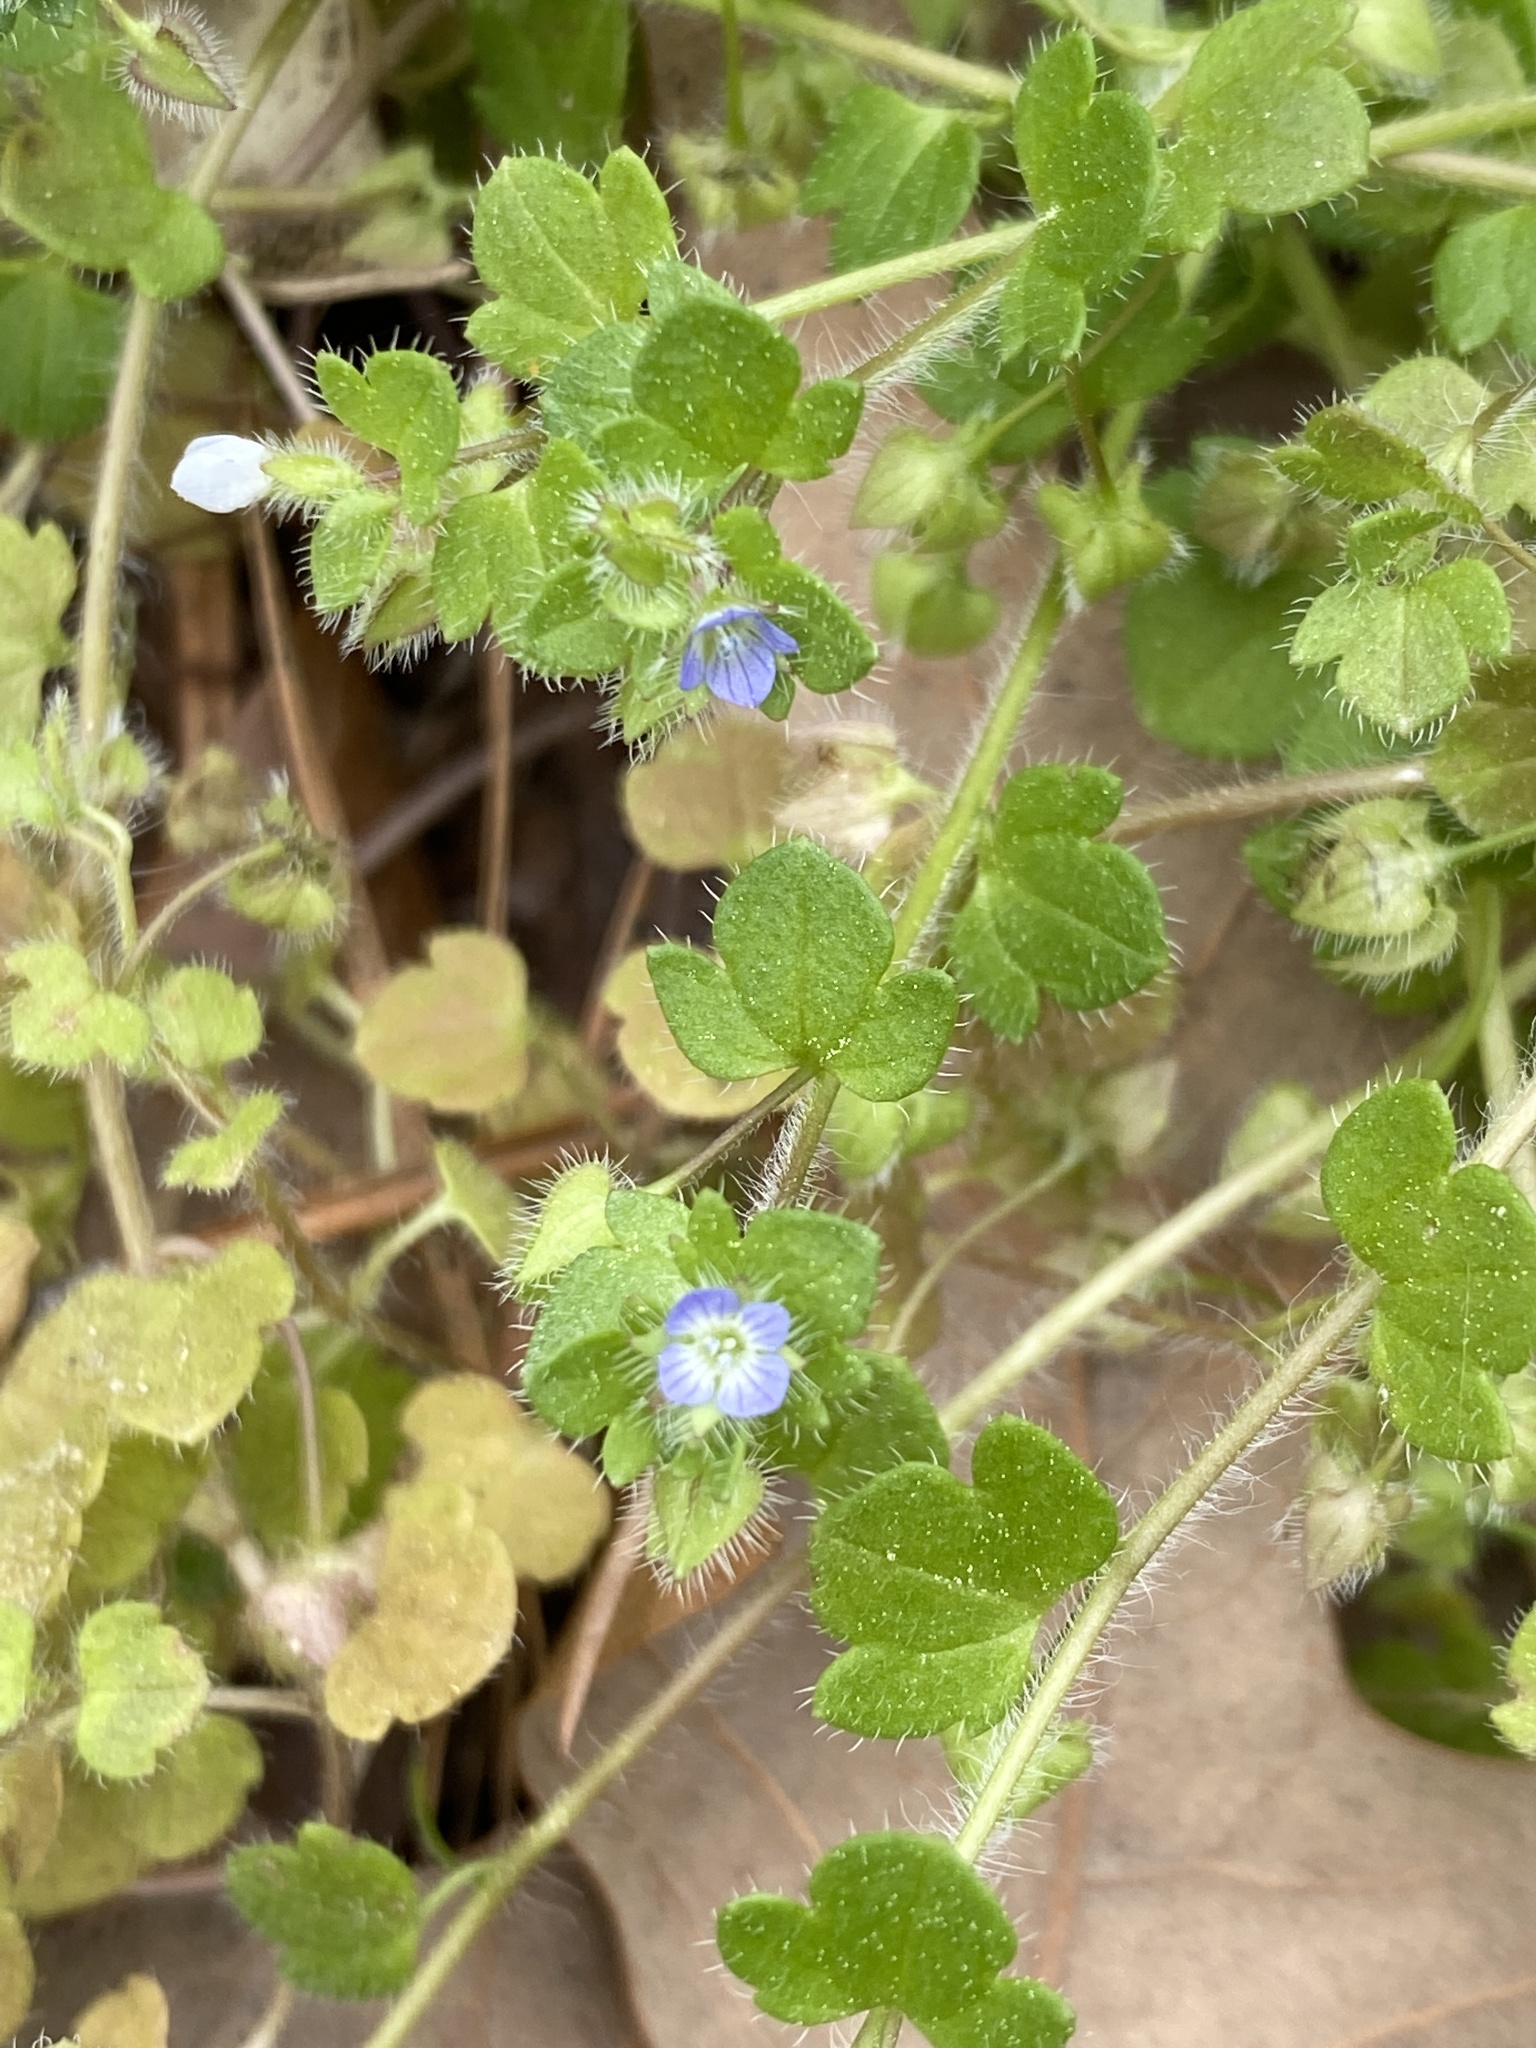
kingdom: Plantae
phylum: Tracheophyta
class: Magnoliopsida
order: Lamiales
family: Plantaginaceae
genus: Veronica
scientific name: Veronica hederifolia
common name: Ivy-leaved speedwell
